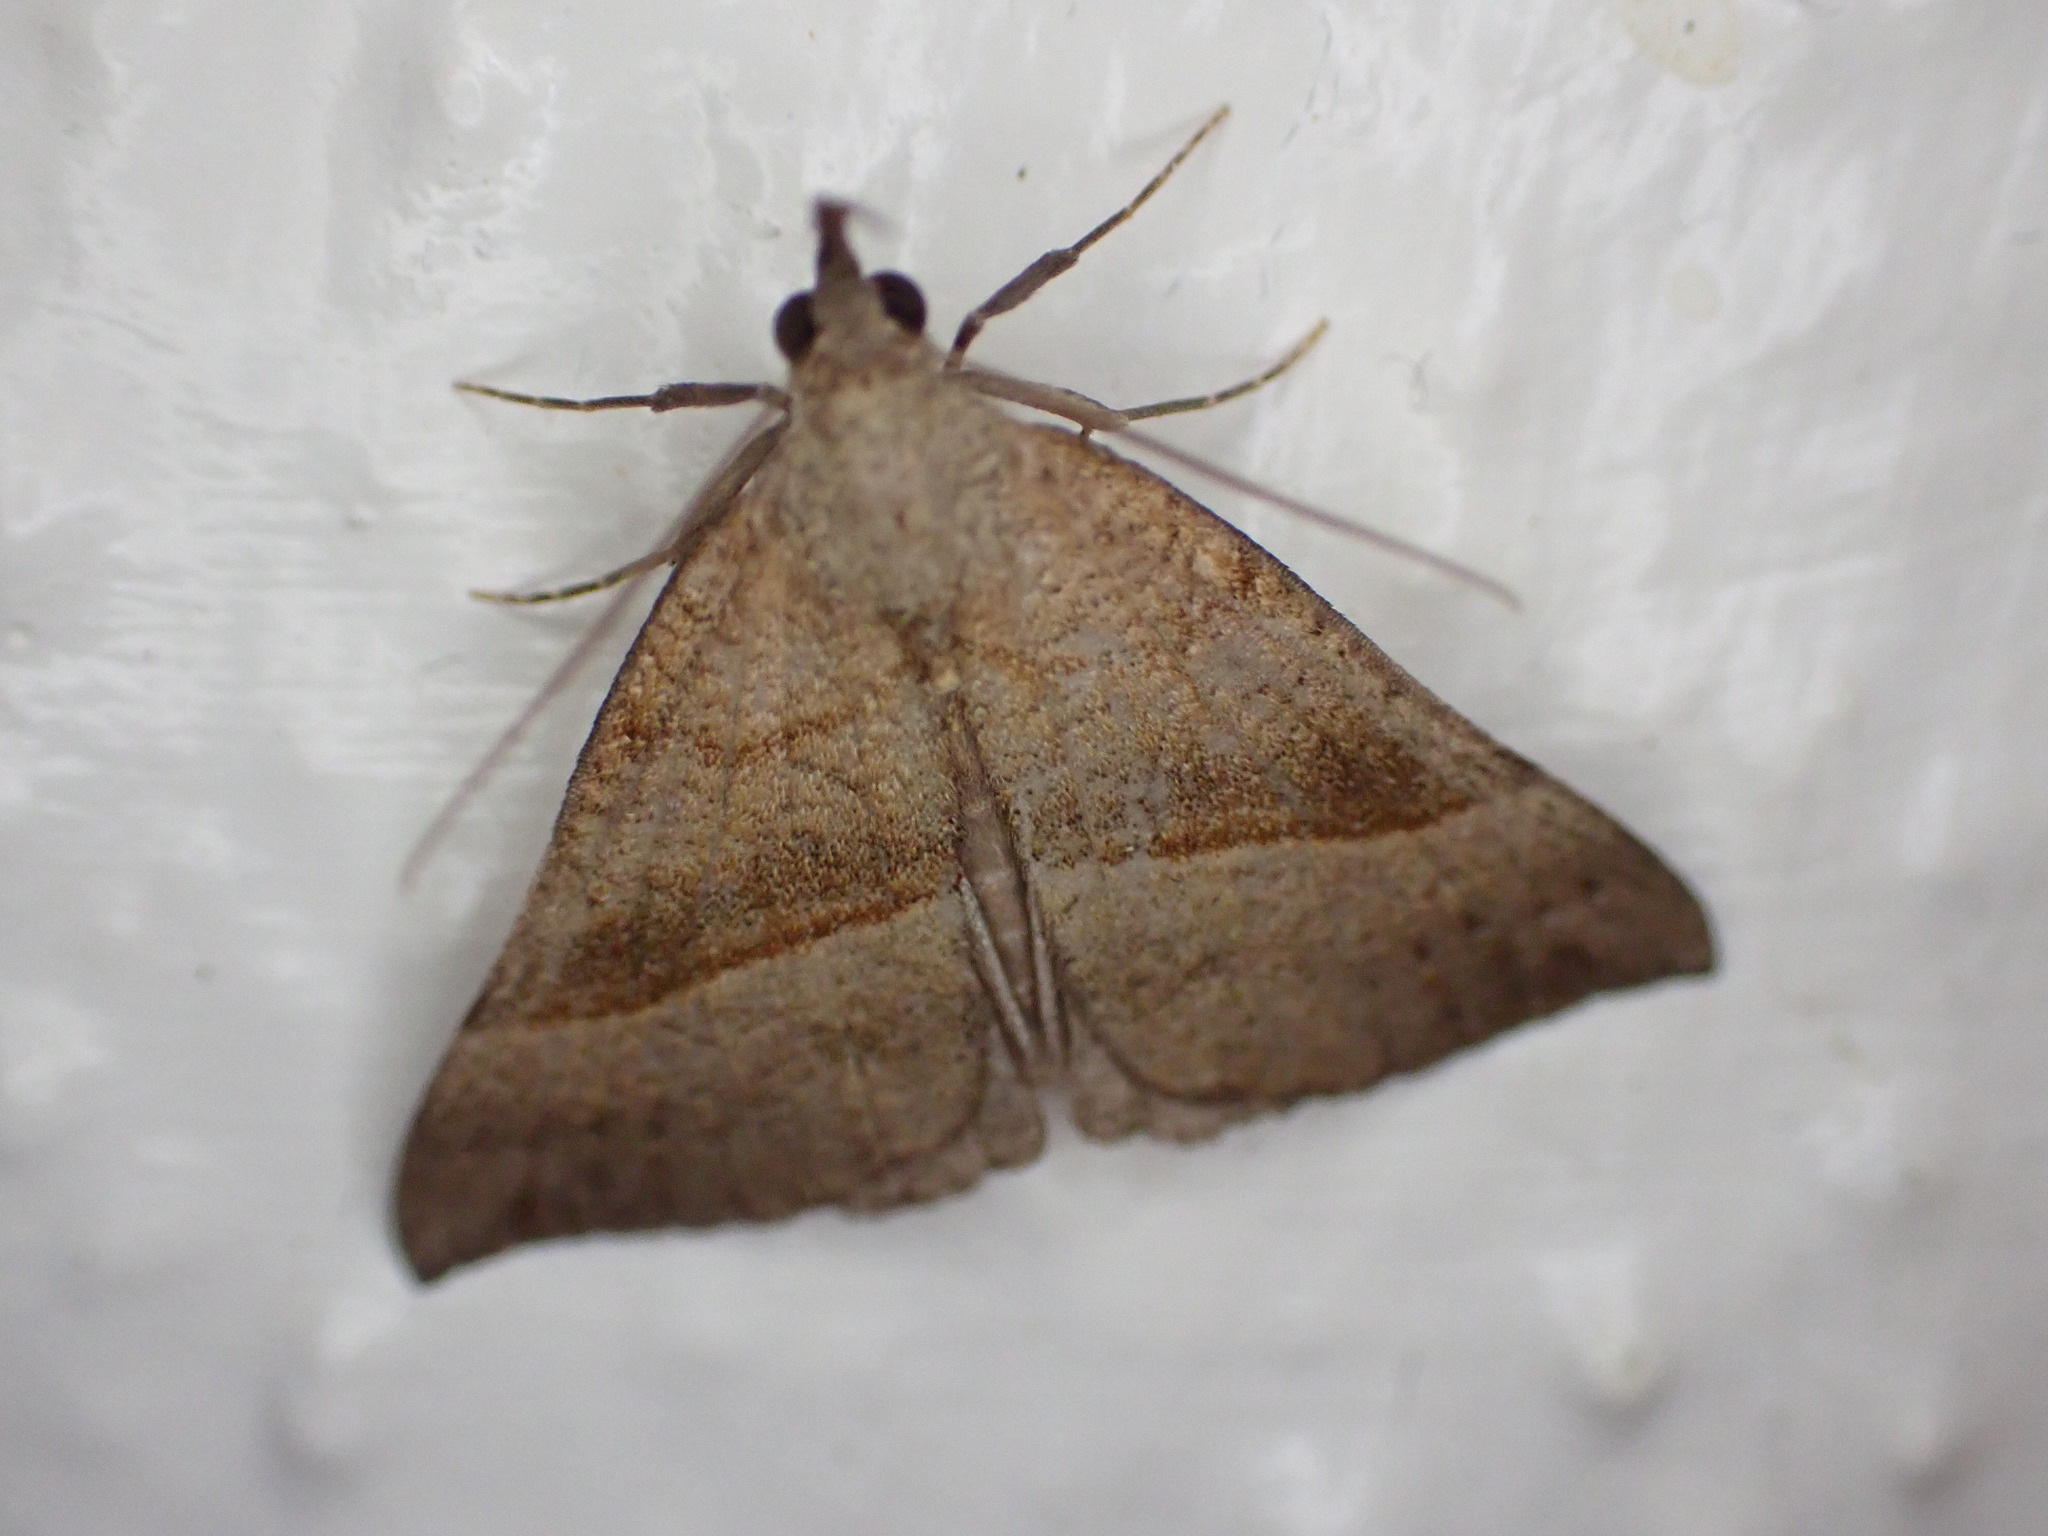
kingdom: Animalia
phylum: Arthropoda
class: Insecta
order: Lepidoptera
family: Erebidae
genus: Hypena
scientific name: Hypena proboscidalis
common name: Snout
